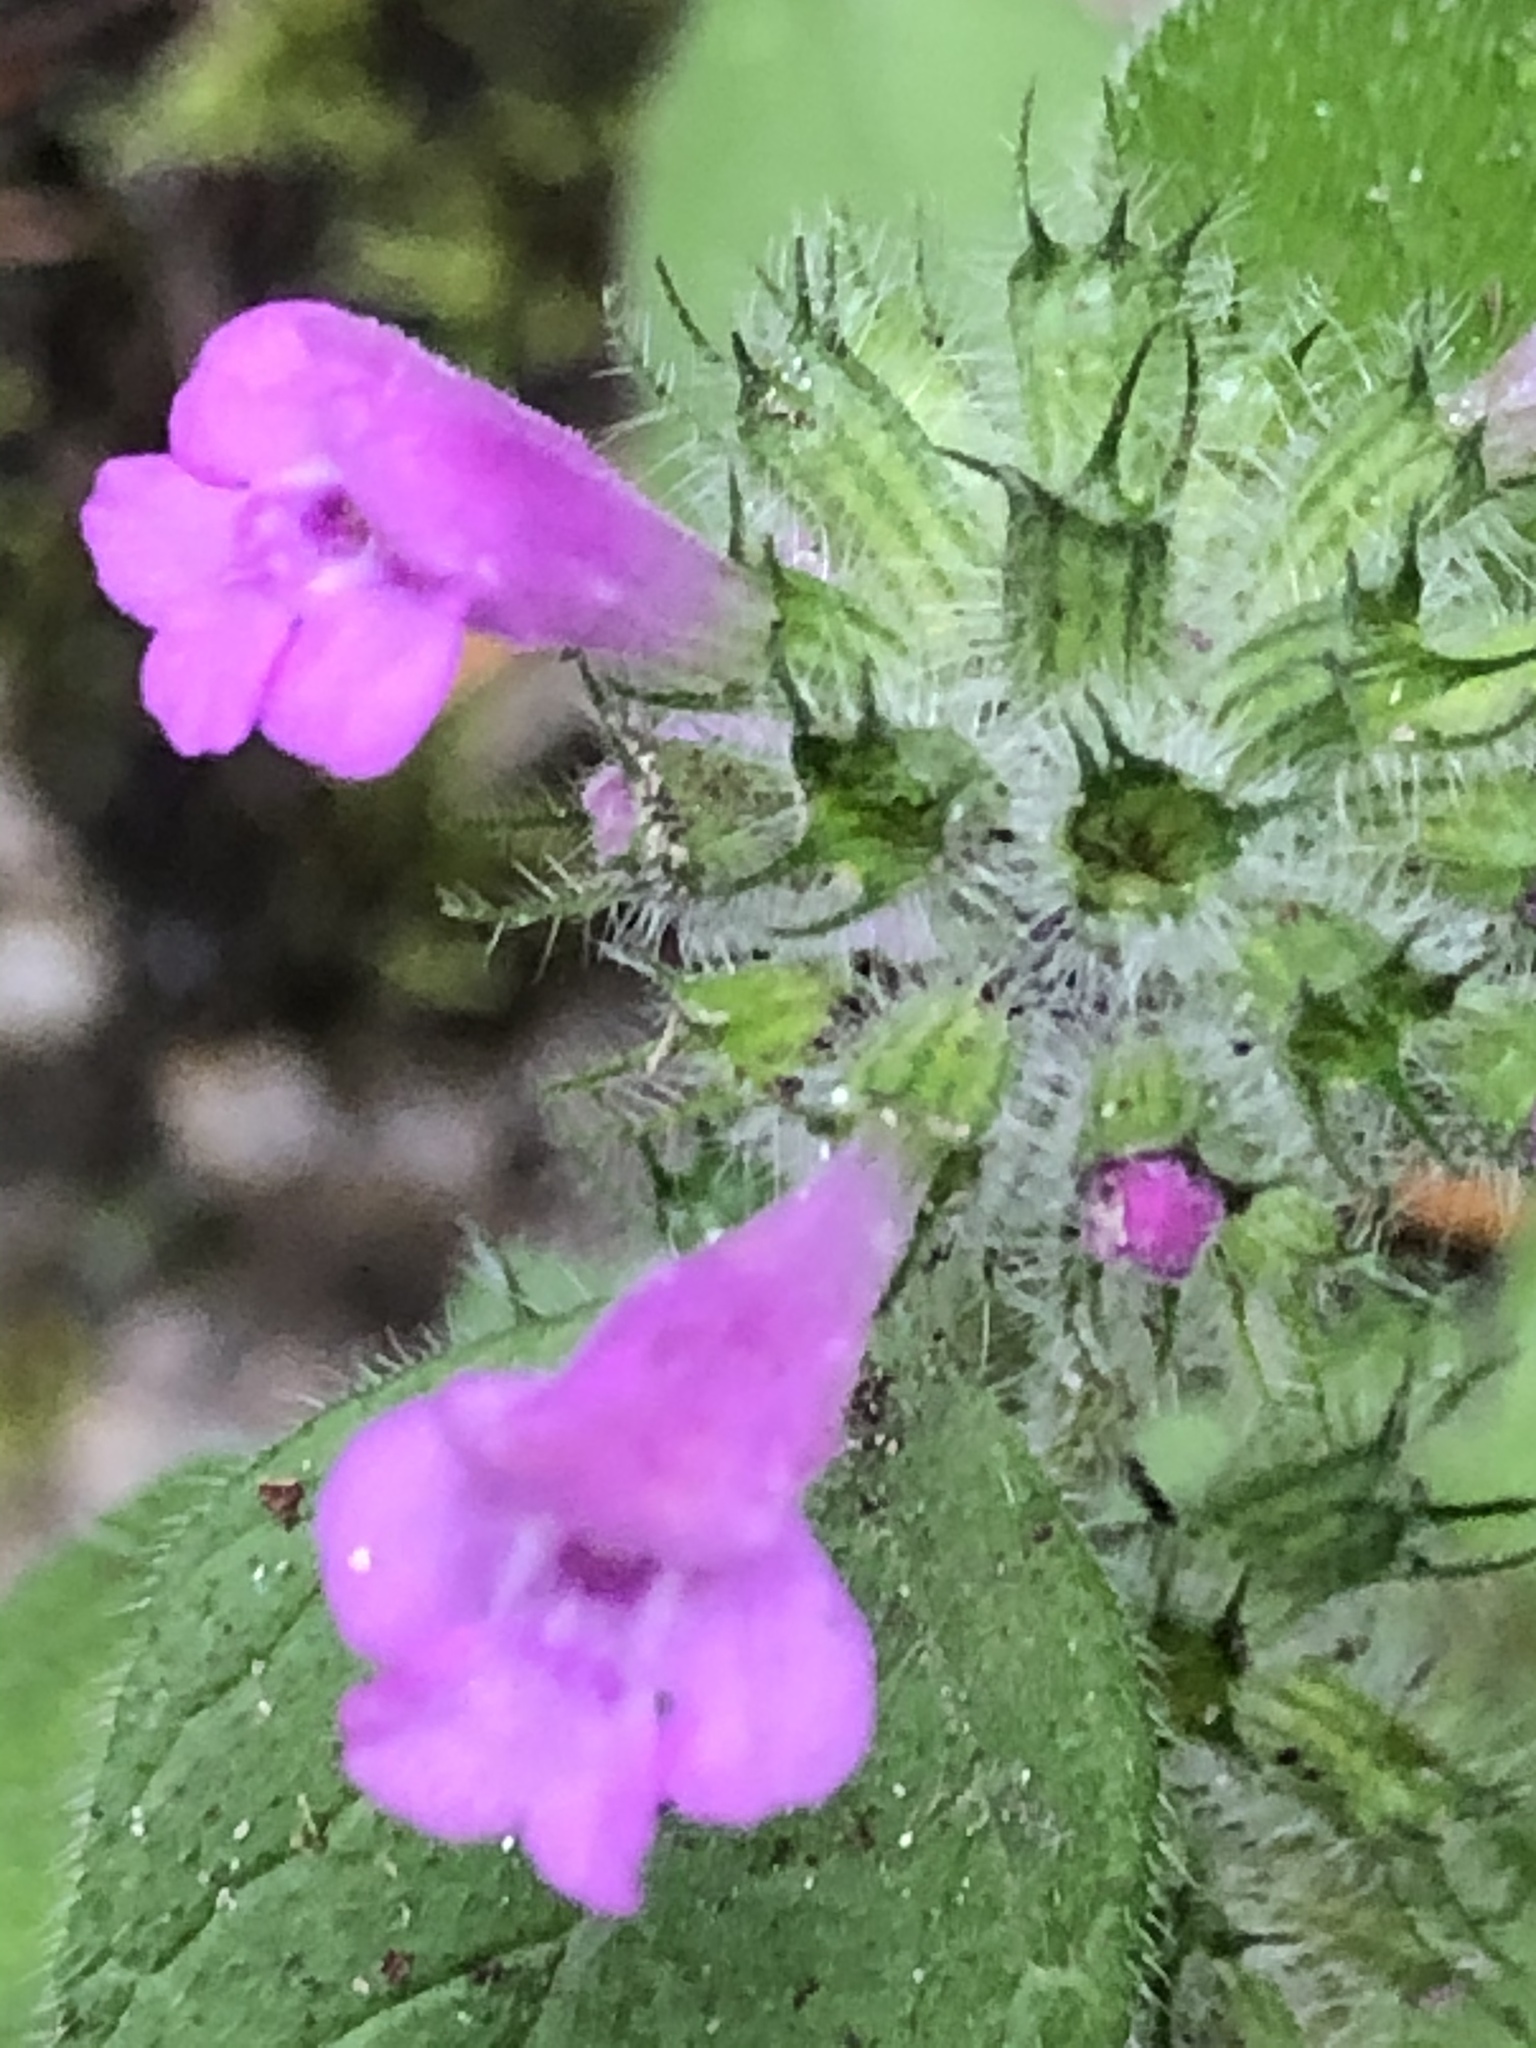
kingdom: Plantae
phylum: Tracheophyta
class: Magnoliopsida
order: Lamiales
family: Lamiaceae
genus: Clinopodium
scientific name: Clinopodium vulgare
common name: Wild basil
